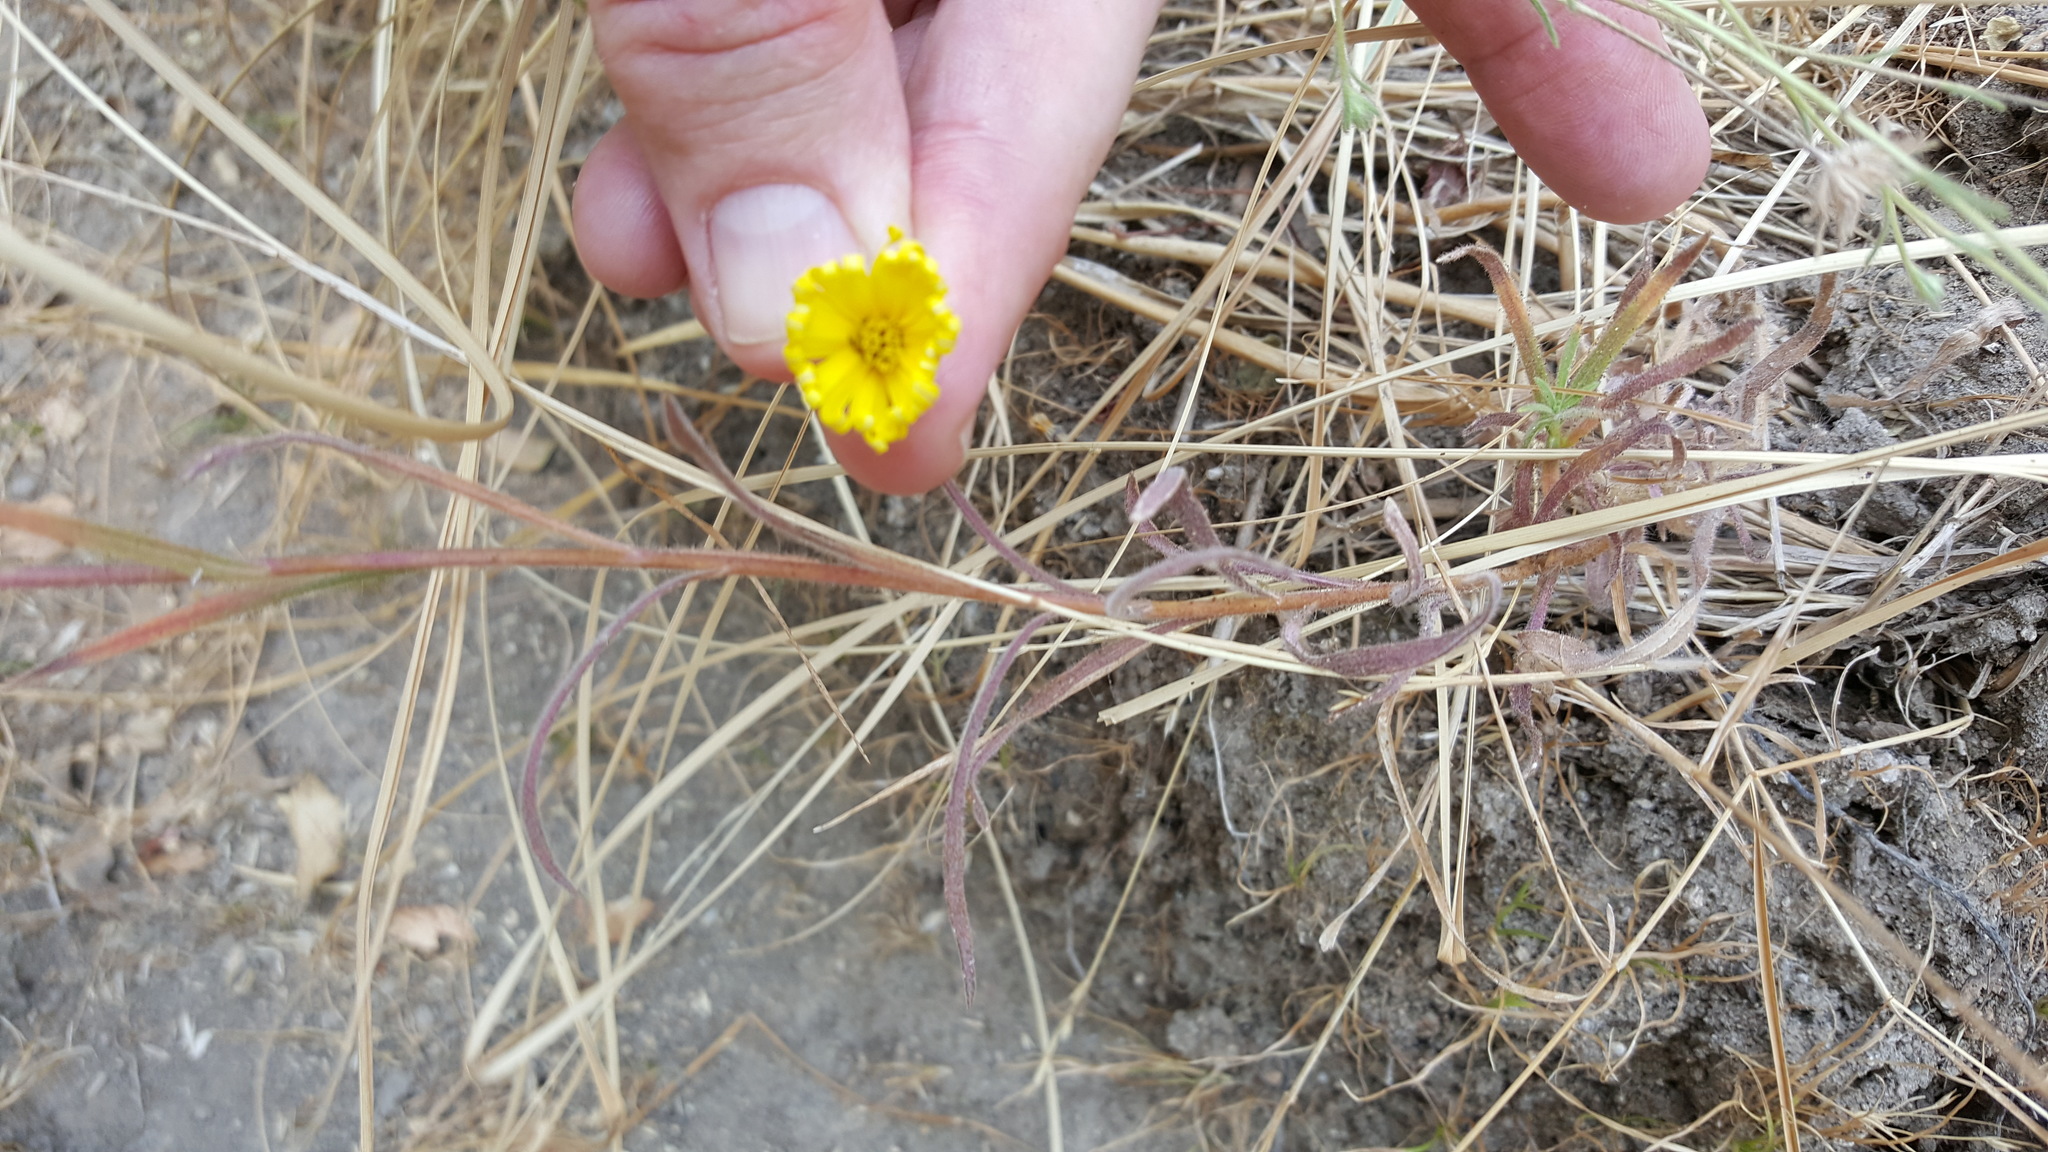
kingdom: Plantae
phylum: Tracheophyta
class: Magnoliopsida
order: Asterales
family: Asteraceae
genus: Madia
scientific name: Madia elegans
